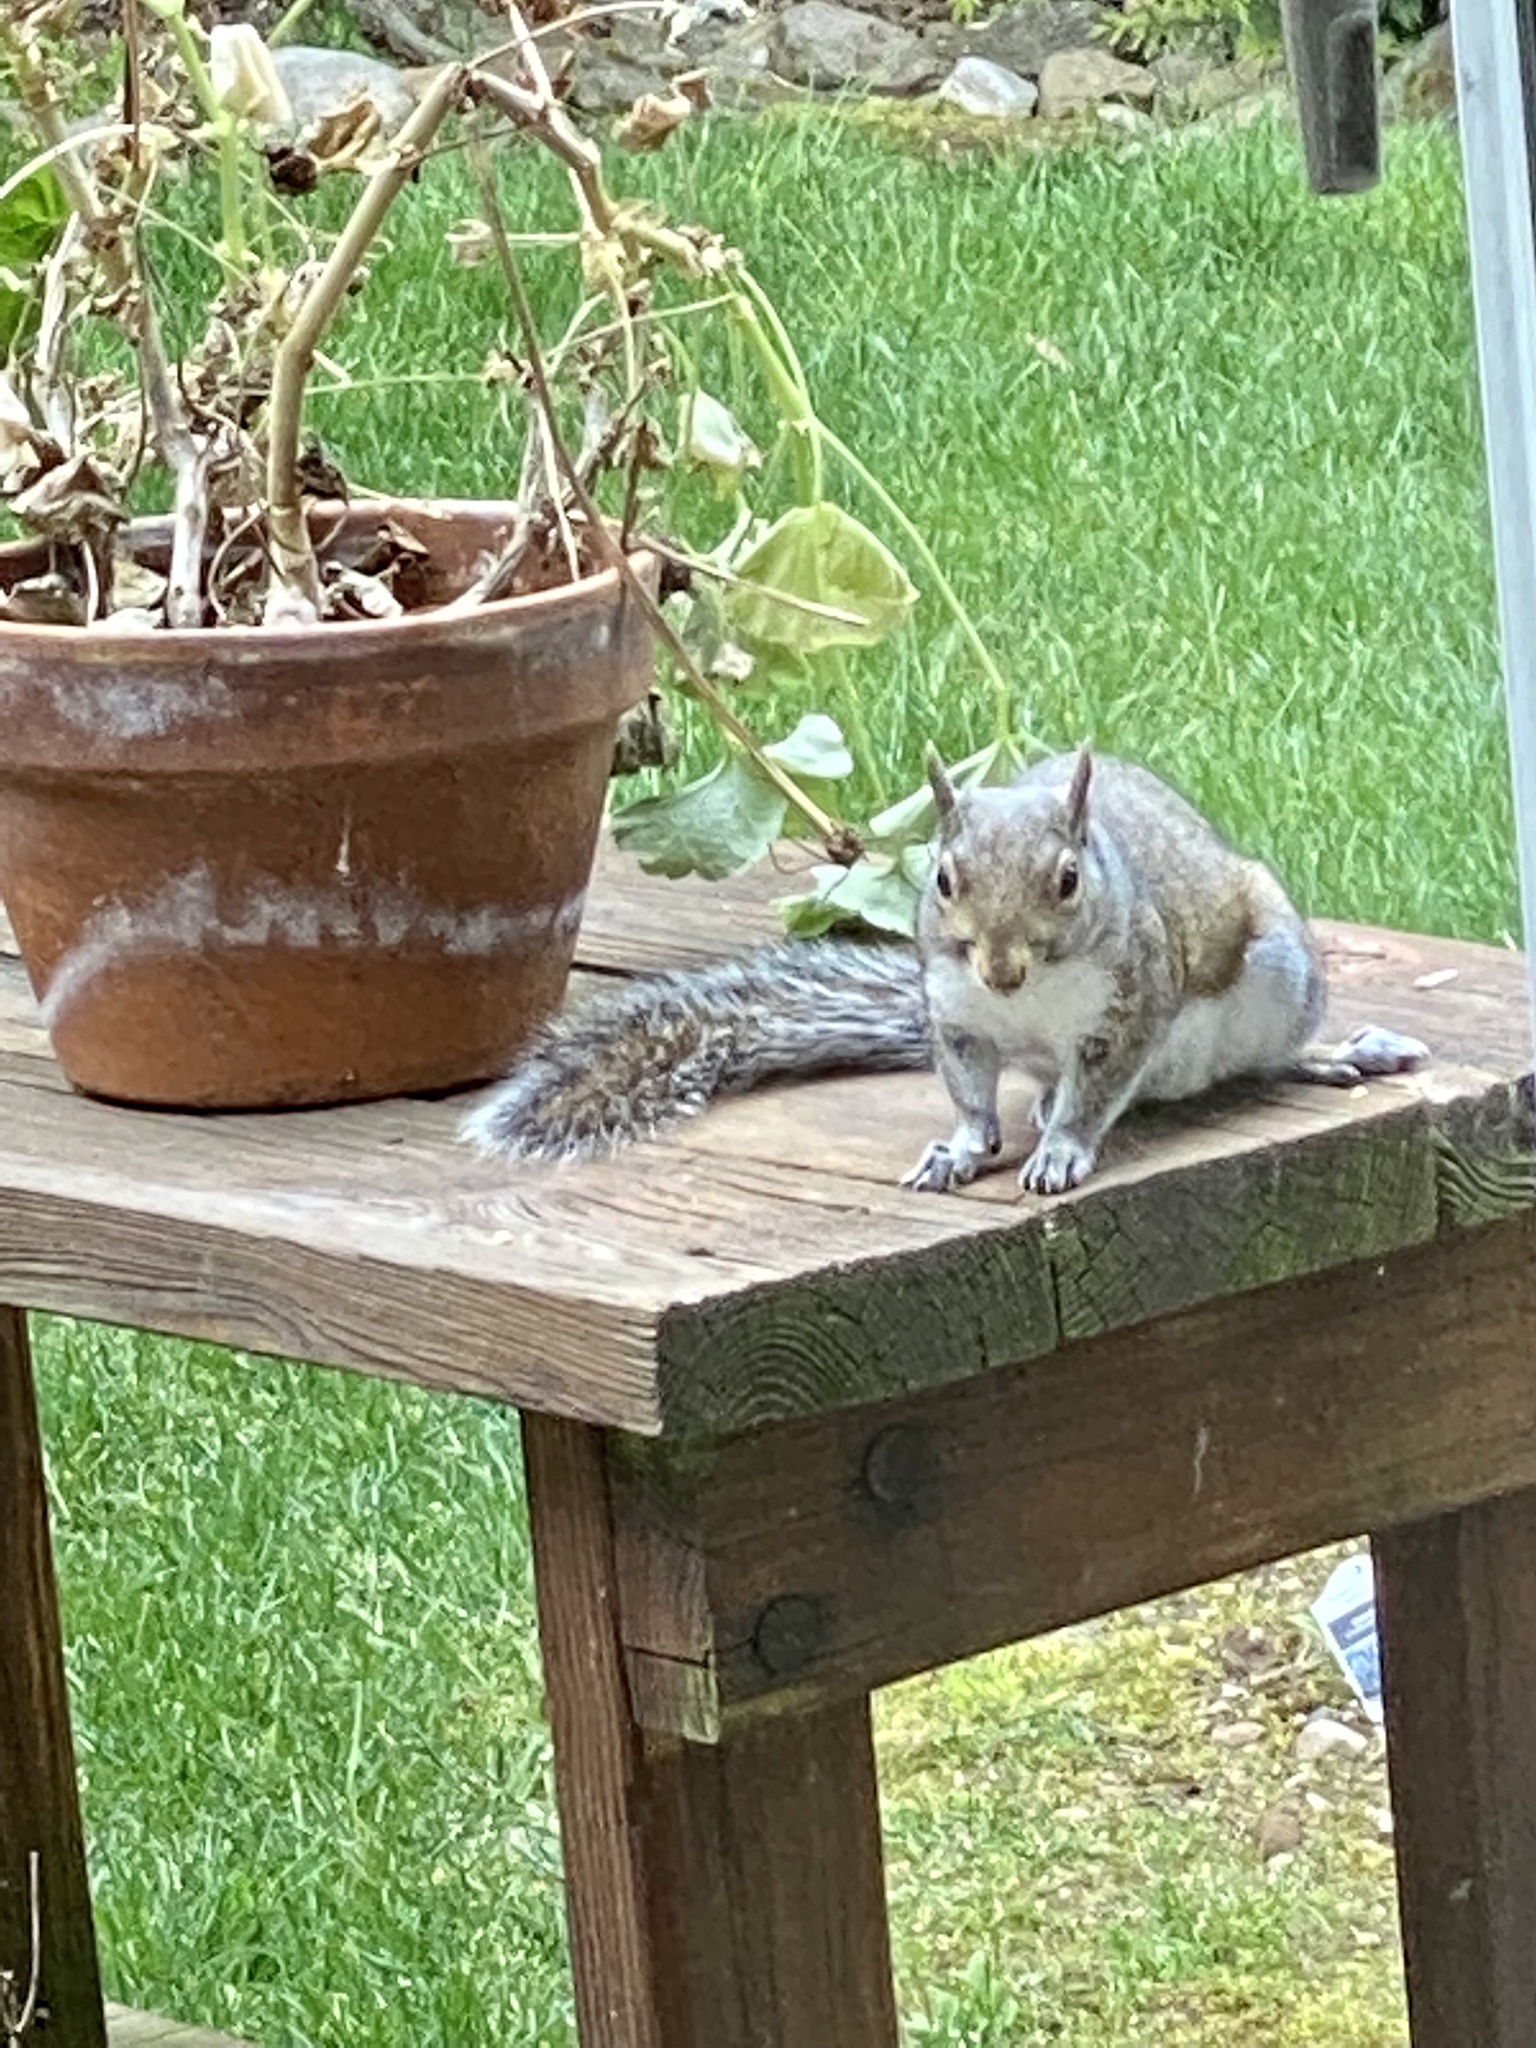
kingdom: Animalia
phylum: Chordata
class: Mammalia
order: Rodentia
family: Sciuridae
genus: Sciurus
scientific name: Sciurus carolinensis
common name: Eastern gray squirrel
